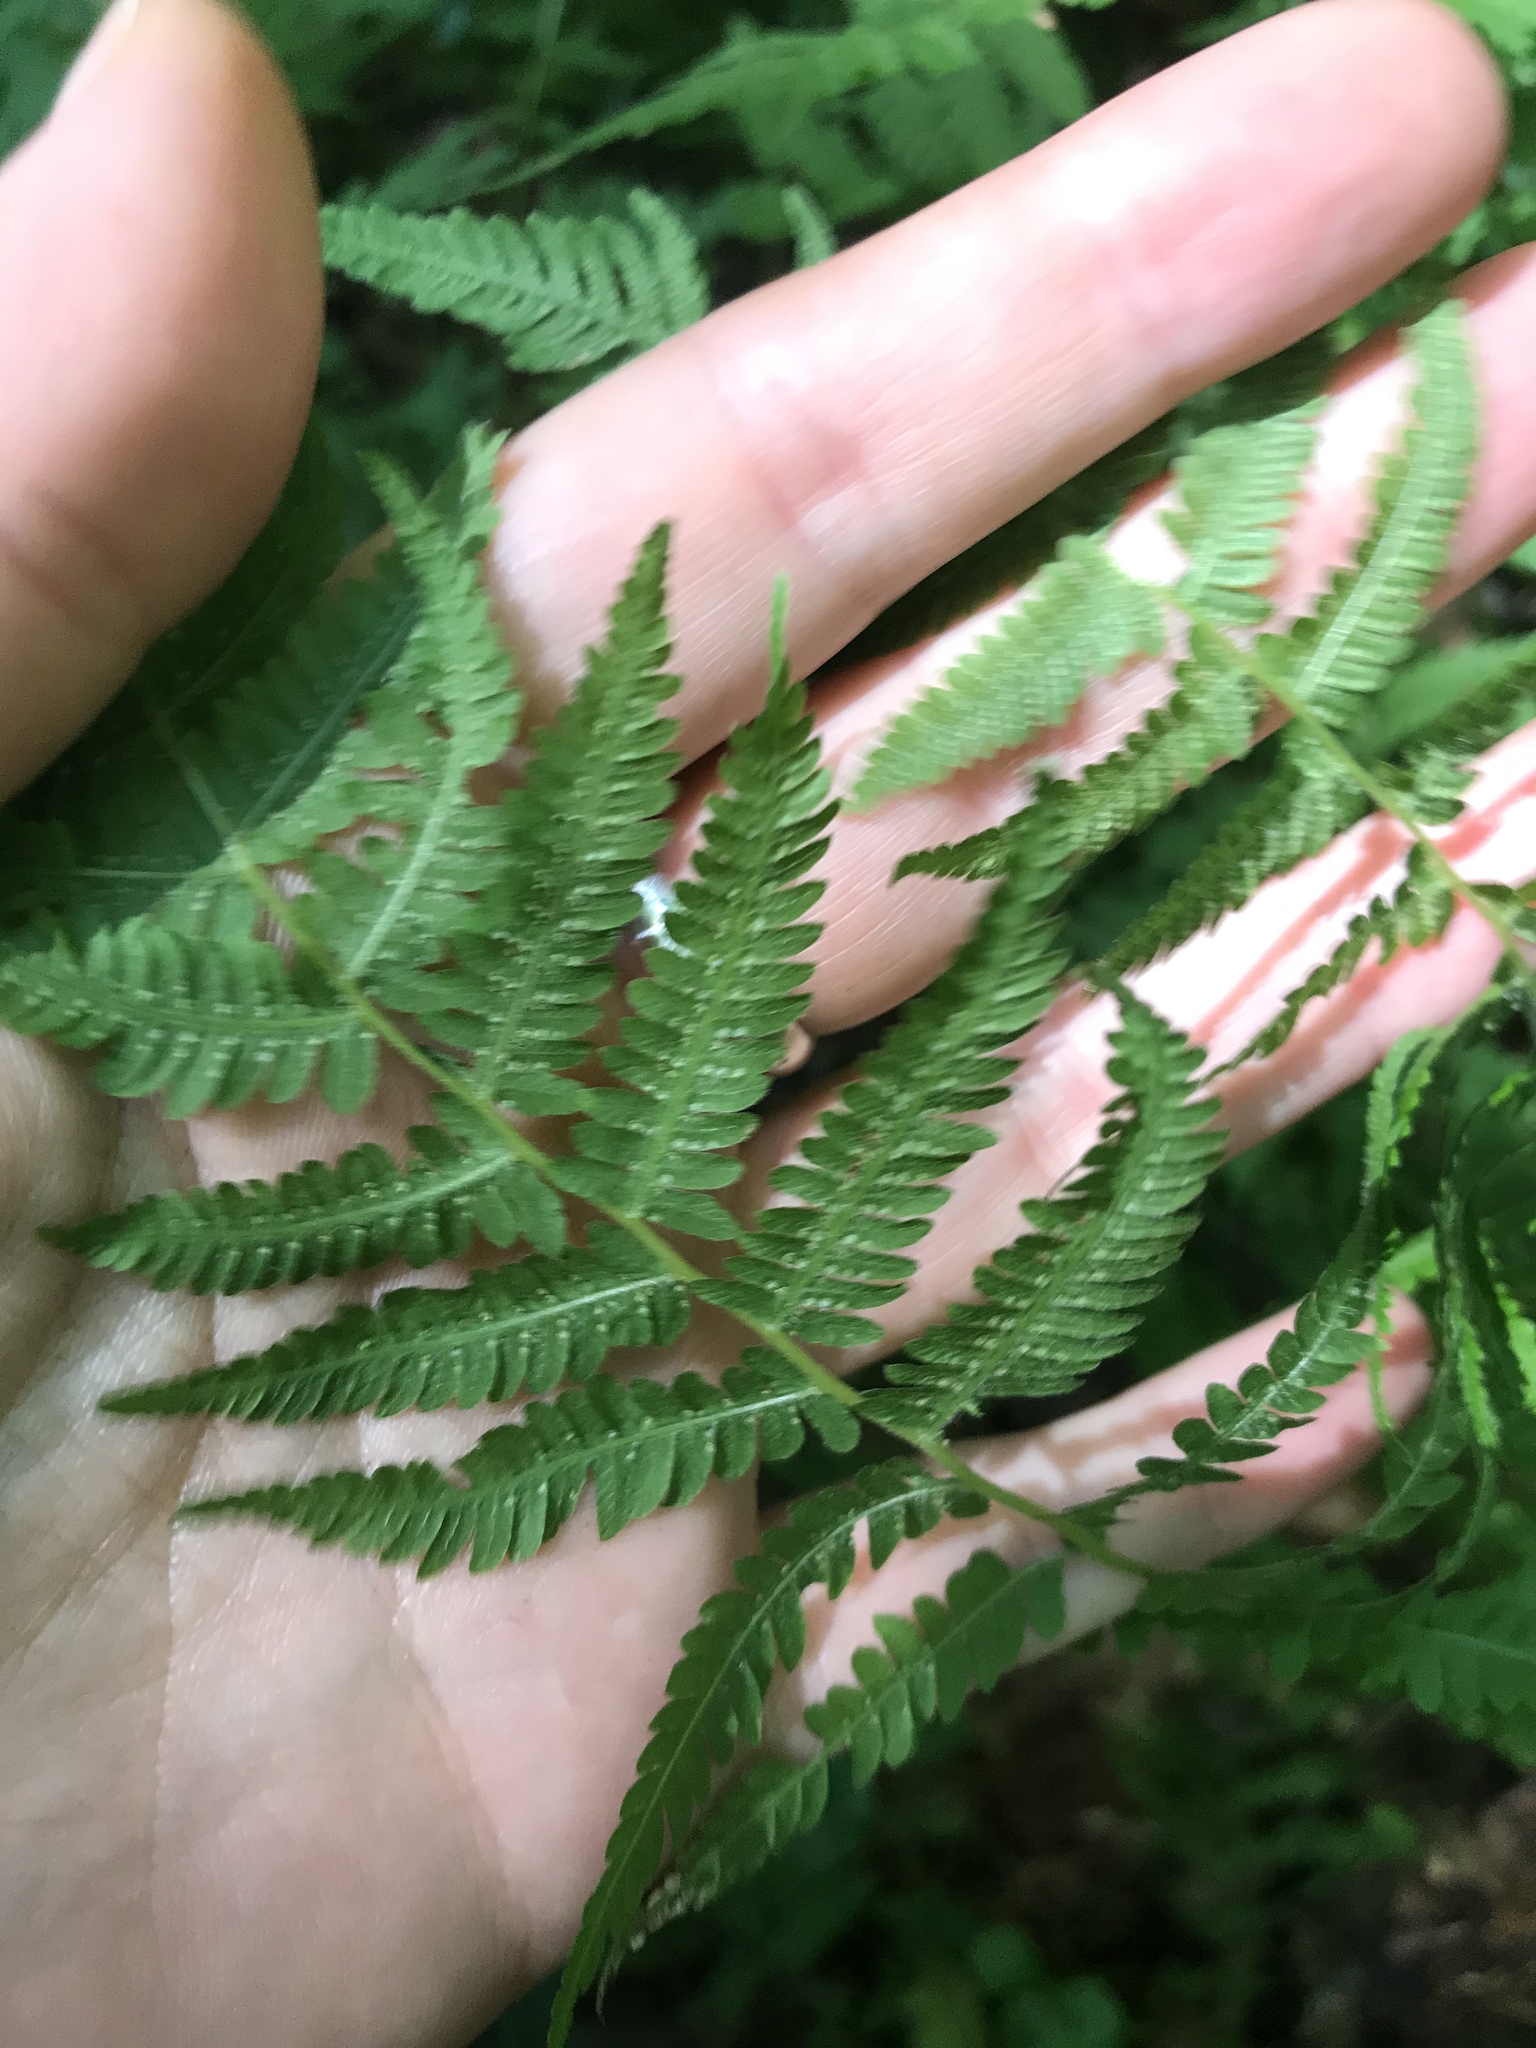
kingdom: Plantae
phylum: Tracheophyta
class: Polypodiopsida
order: Polypodiales
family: Thelypteridaceae
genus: Amauropelta
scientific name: Amauropelta noveboracensis
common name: New york fern
